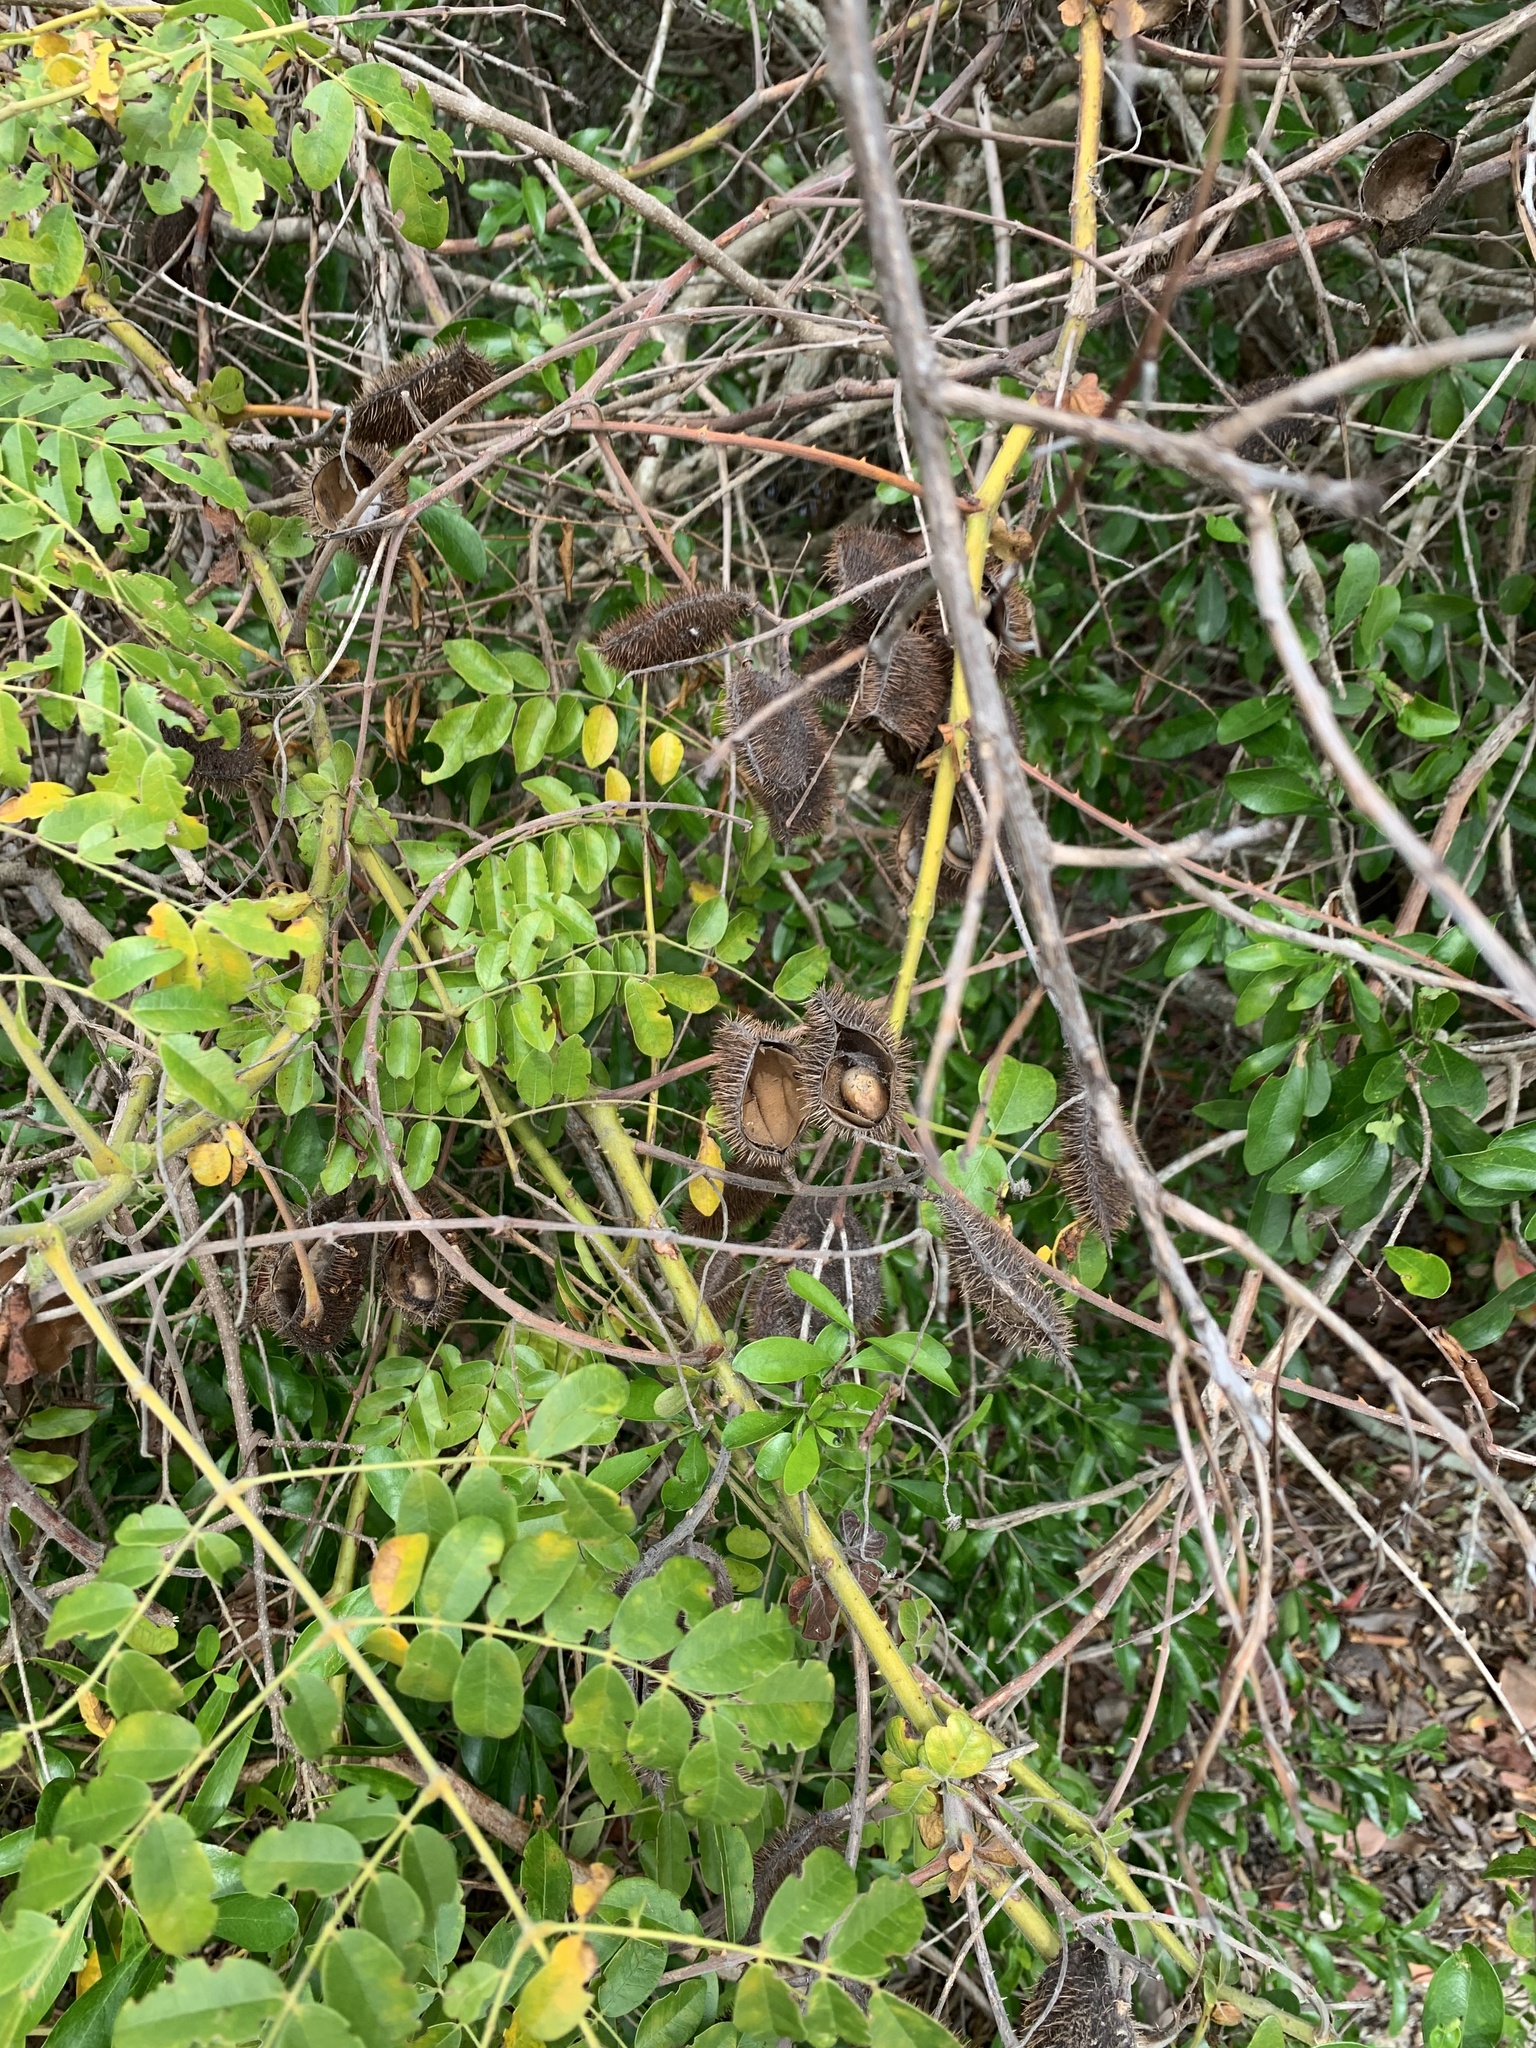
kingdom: Plantae
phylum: Tracheophyta
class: Magnoliopsida
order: Fabales
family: Fabaceae
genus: Guilandina
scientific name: Guilandina bonduc
